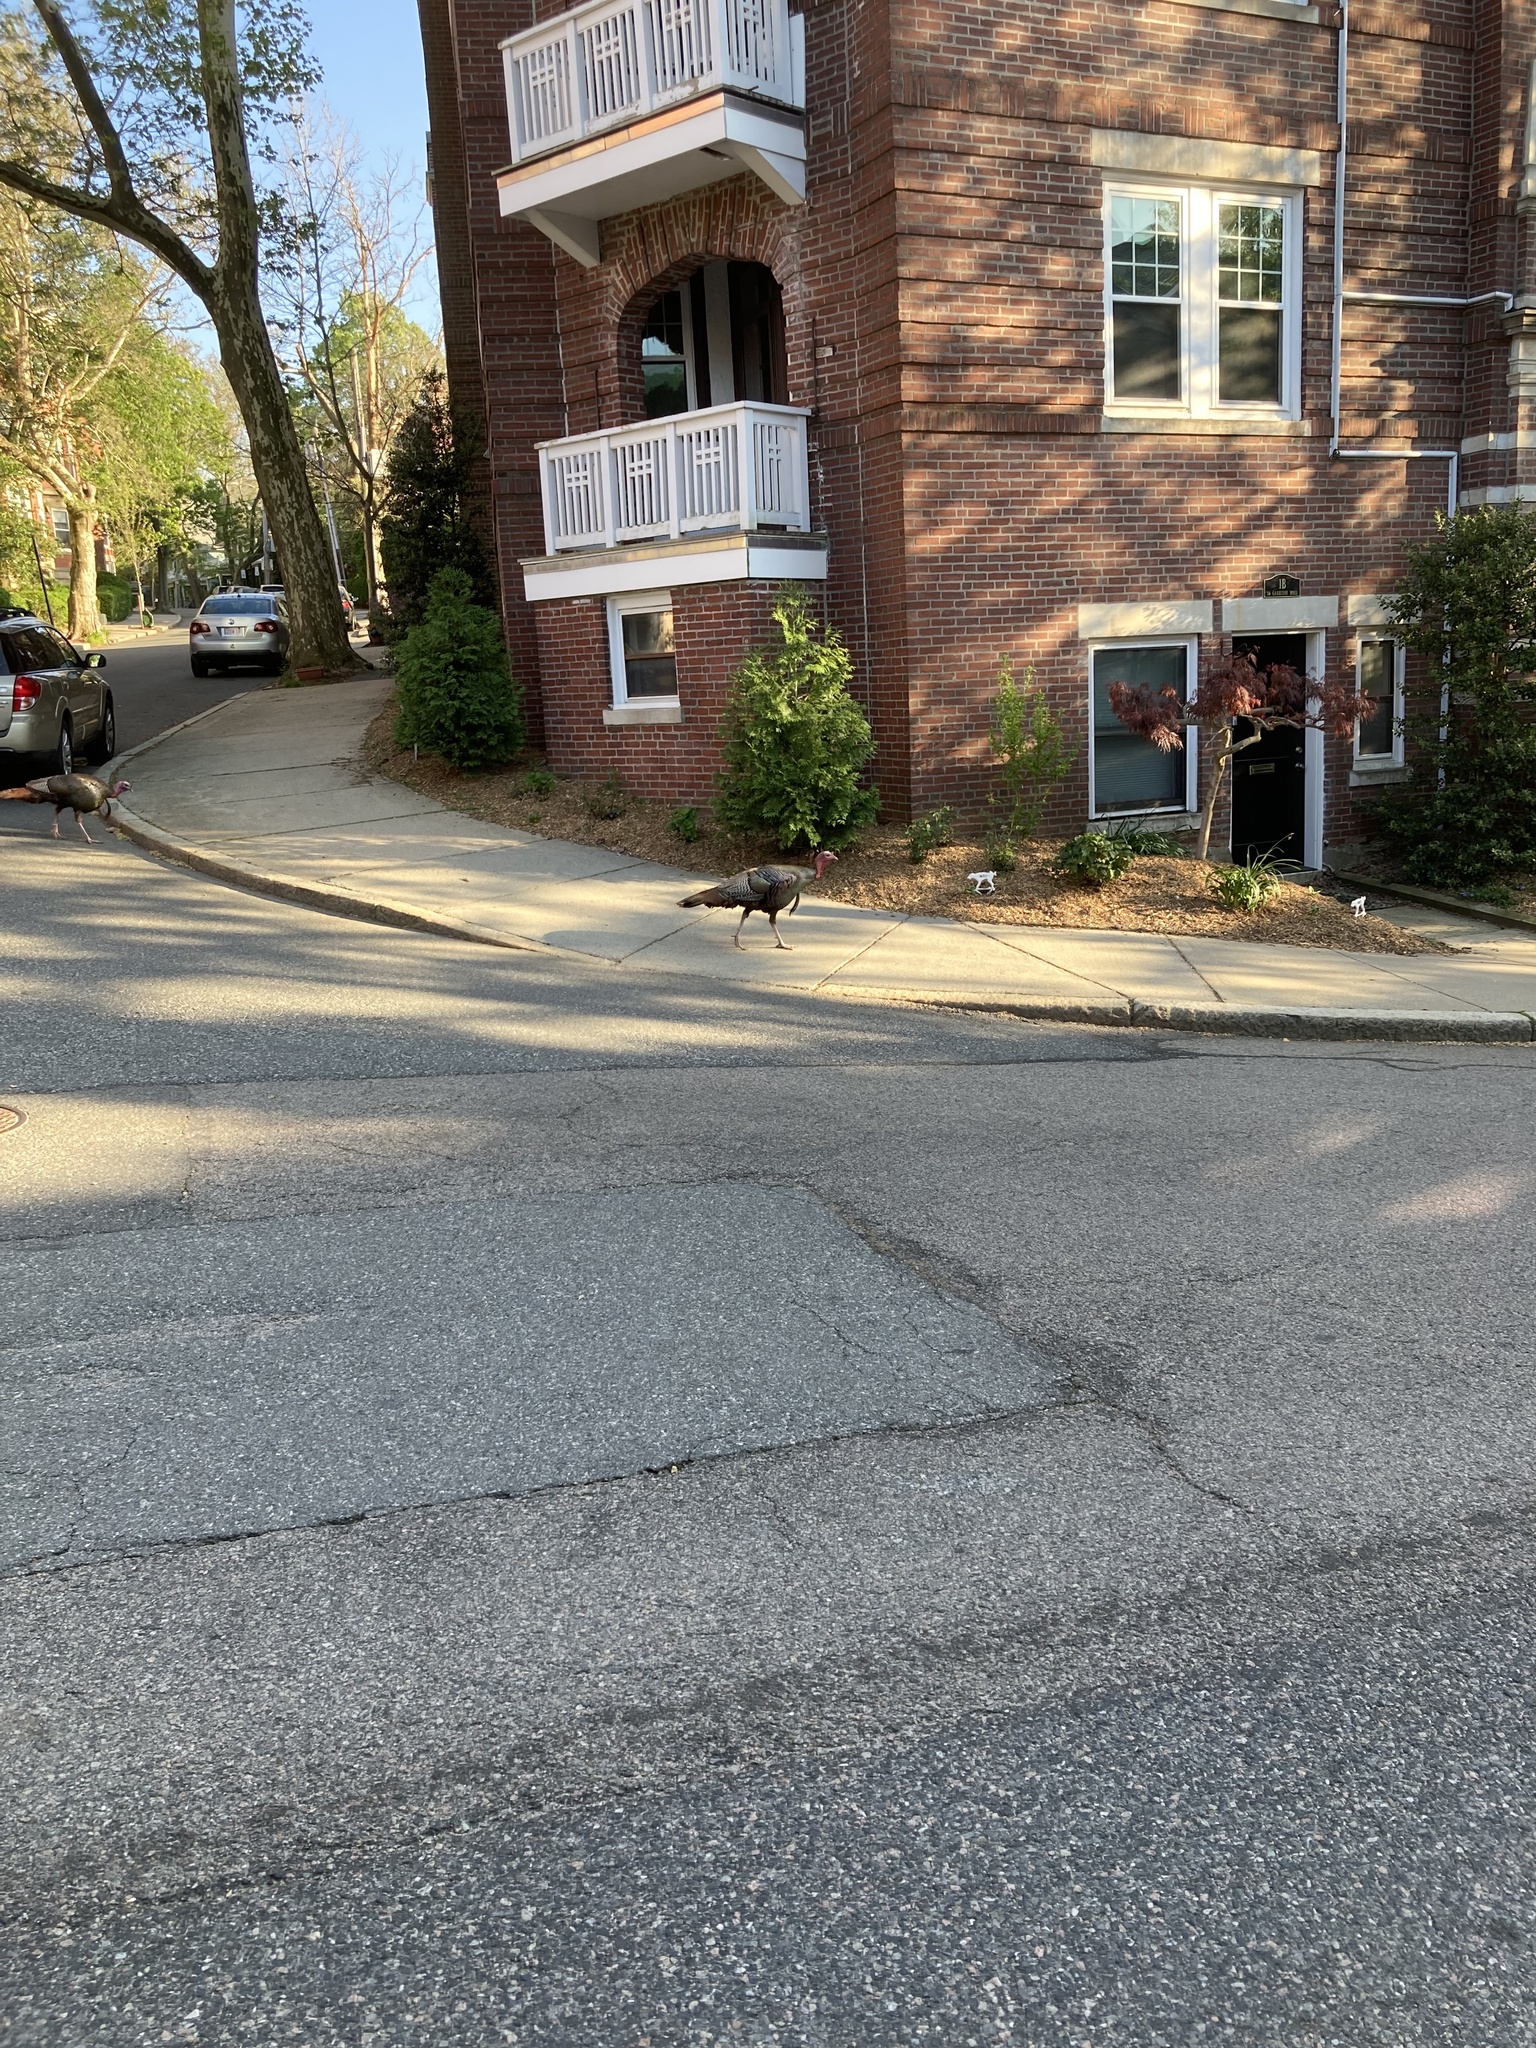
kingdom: Animalia
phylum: Chordata
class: Aves
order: Galliformes
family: Phasianidae
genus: Meleagris
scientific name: Meleagris gallopavo
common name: Wild turkey
